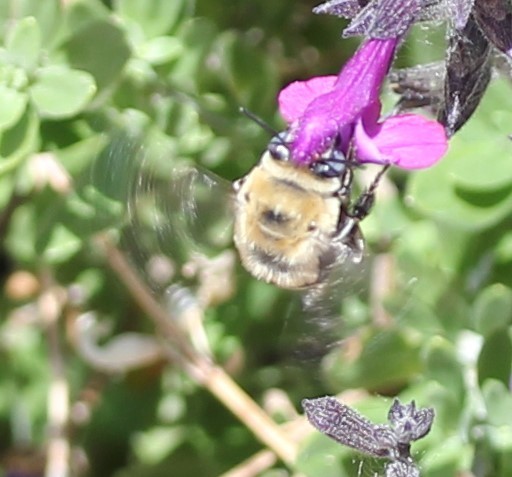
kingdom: Animalia
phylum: Arthropoda
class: Insecta
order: Hymenoptera
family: Apidae
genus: Anthophora
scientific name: Anthophora
